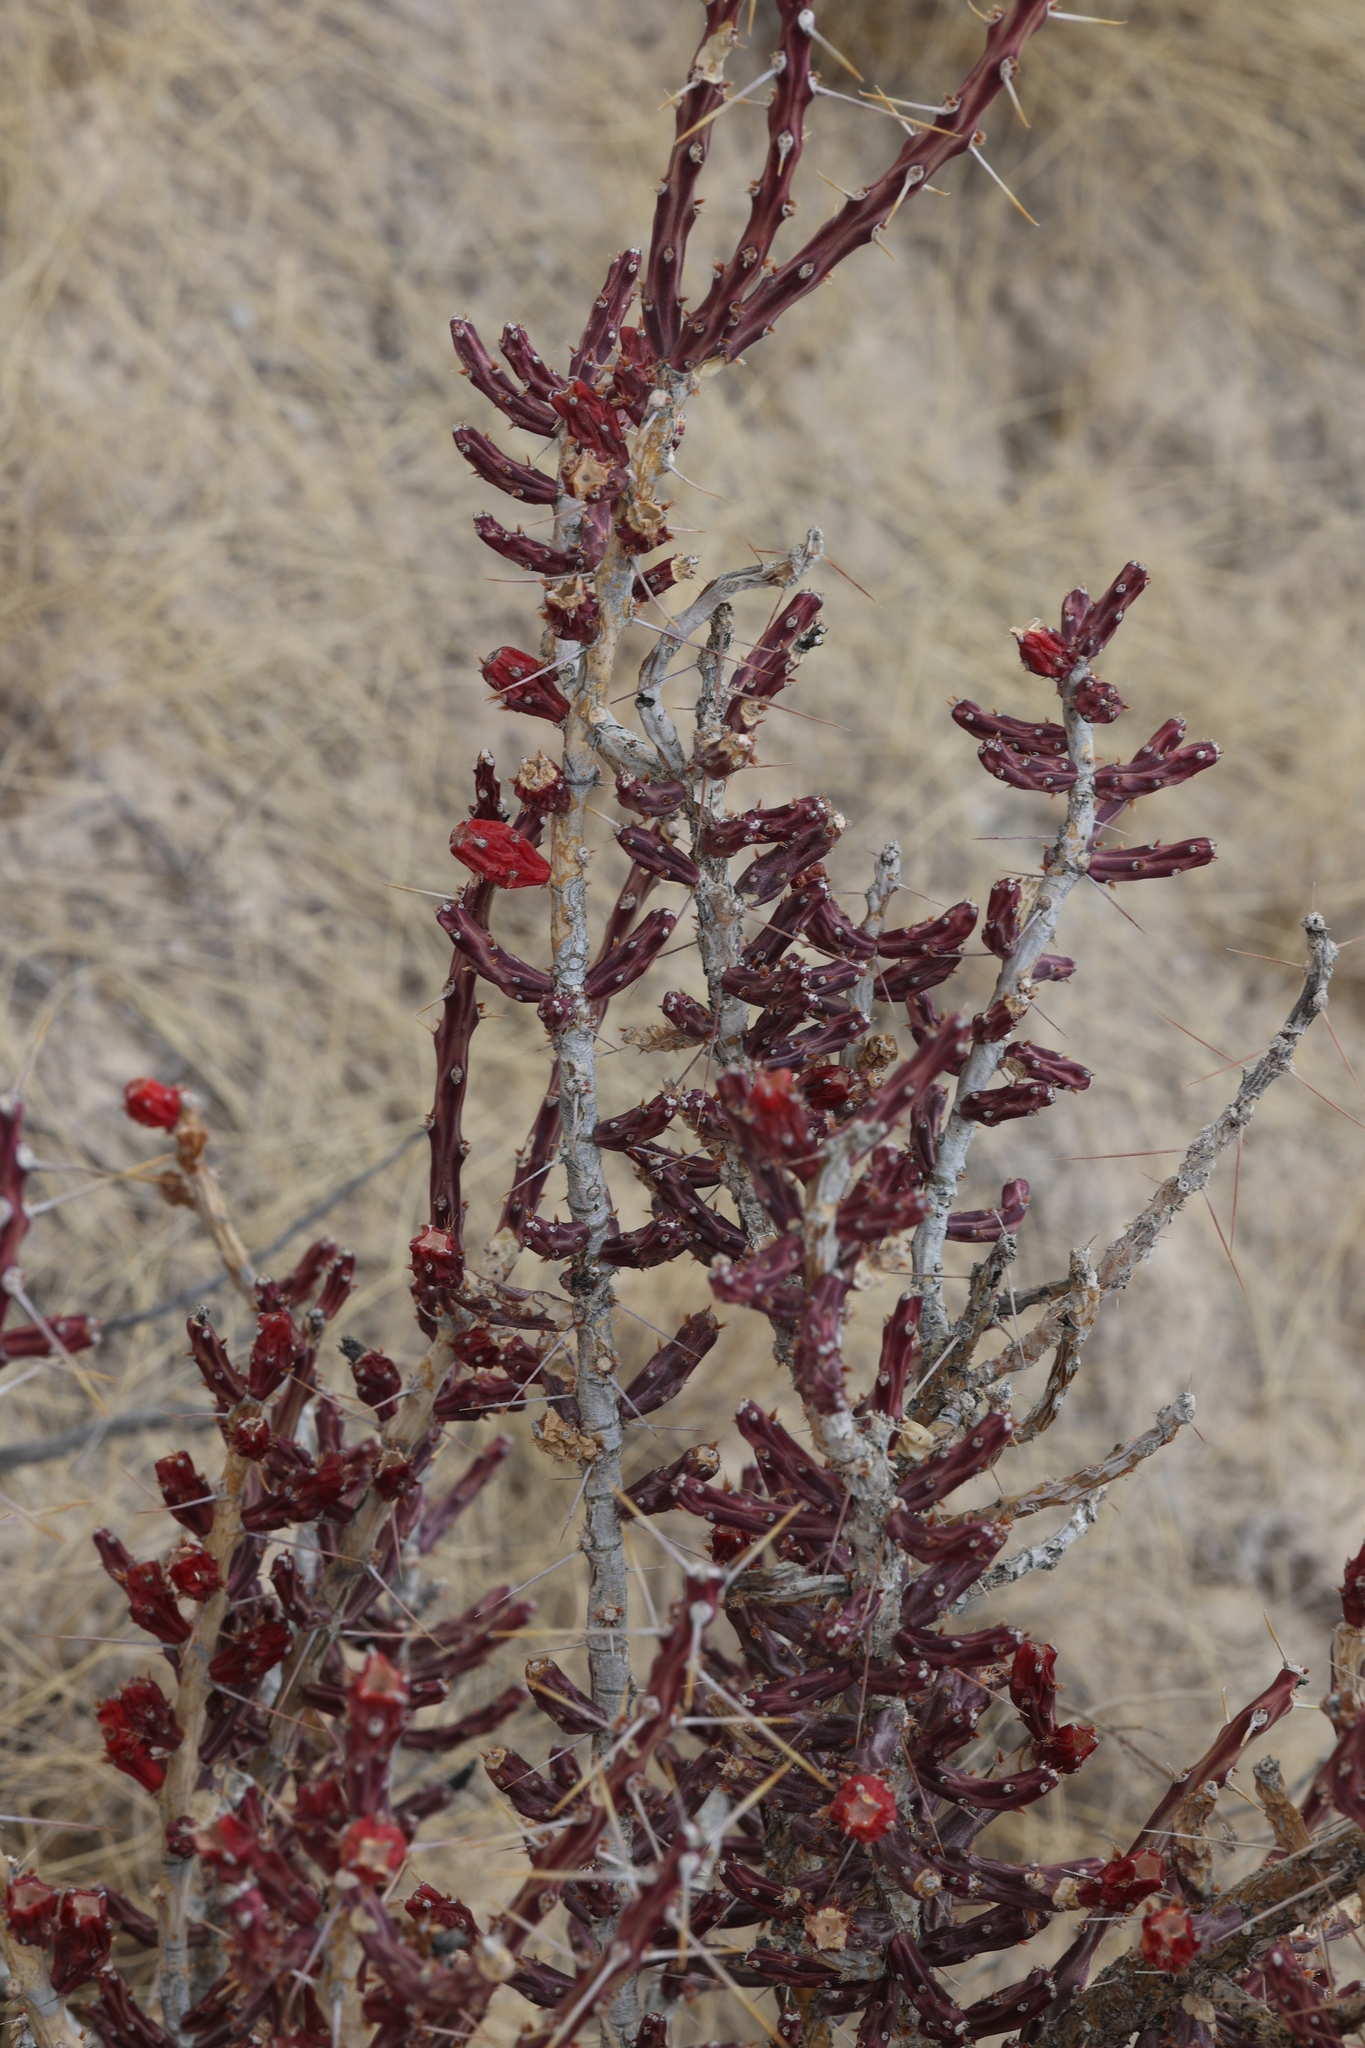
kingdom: Plantae
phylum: Tracheophyta
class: Magnoliopsida
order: Caryophyllales
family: Cactaceae
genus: Cylindropuntia
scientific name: Cylindropuntia leptocaulis
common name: Christmas cactus
